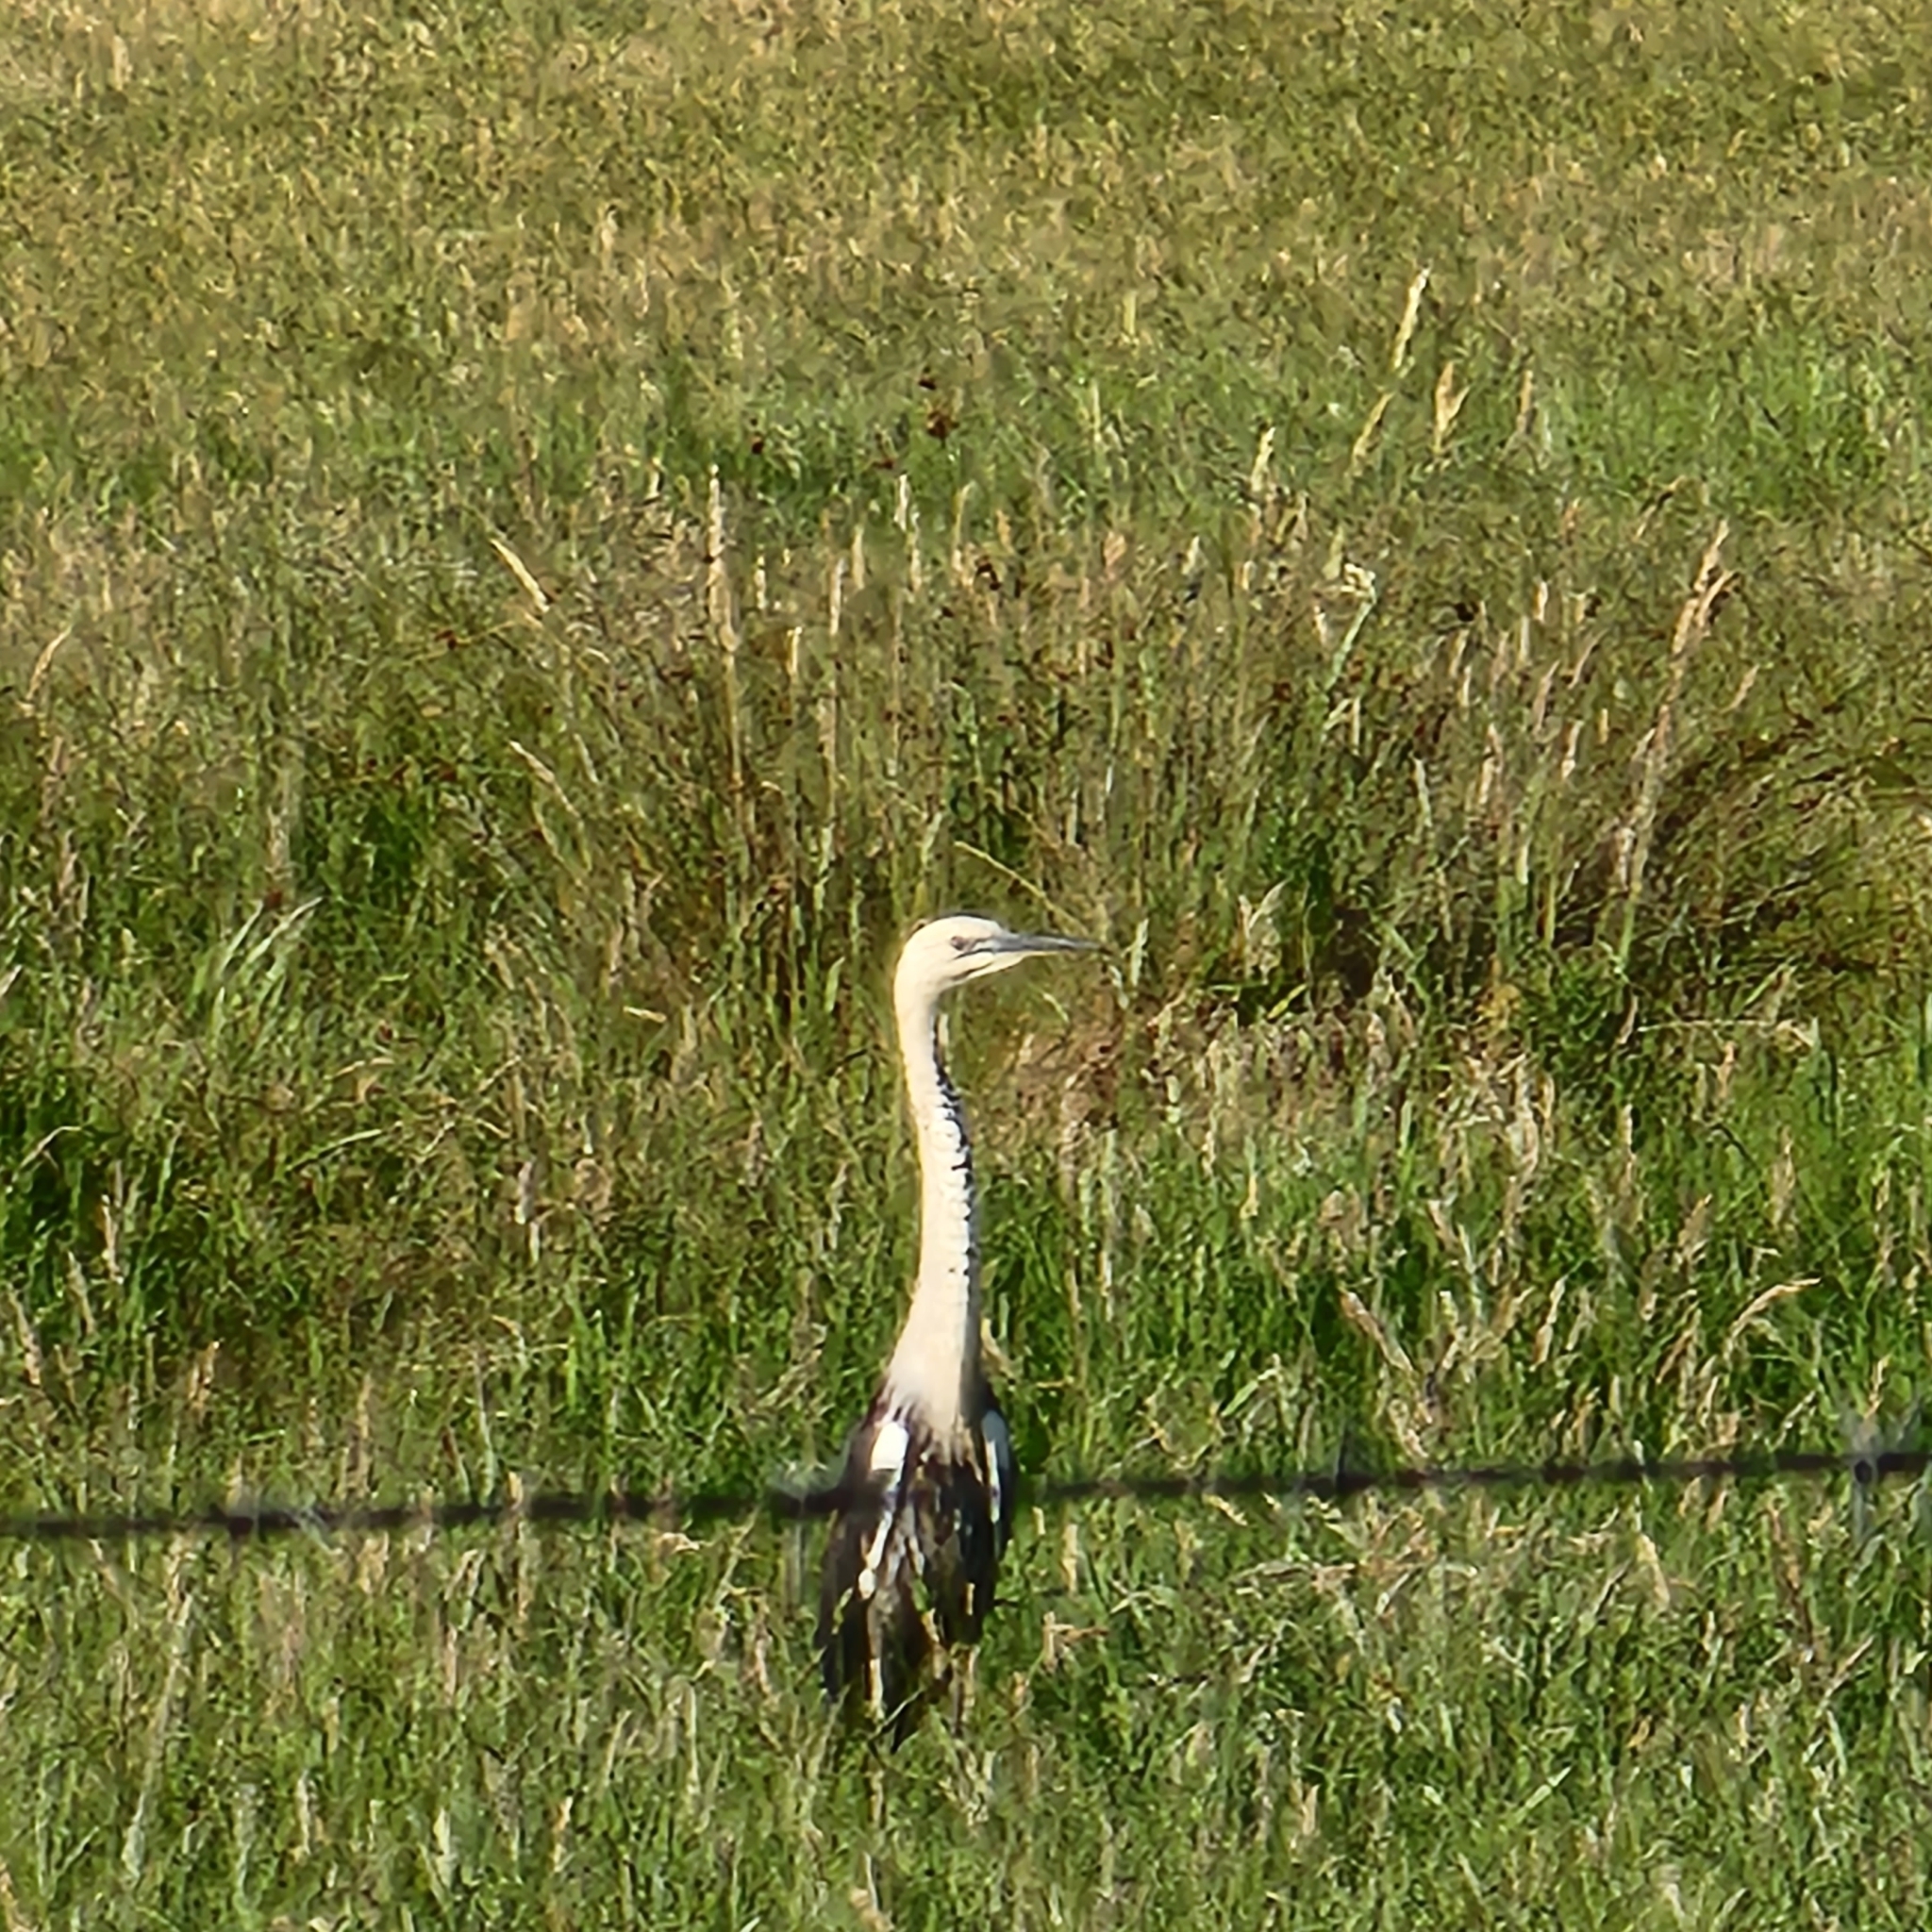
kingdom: Animalia
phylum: Chordata
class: Aves
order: Pelecaniformes
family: Ardeidae
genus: Ardea
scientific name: Ardea pacifica
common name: White-necked heron
